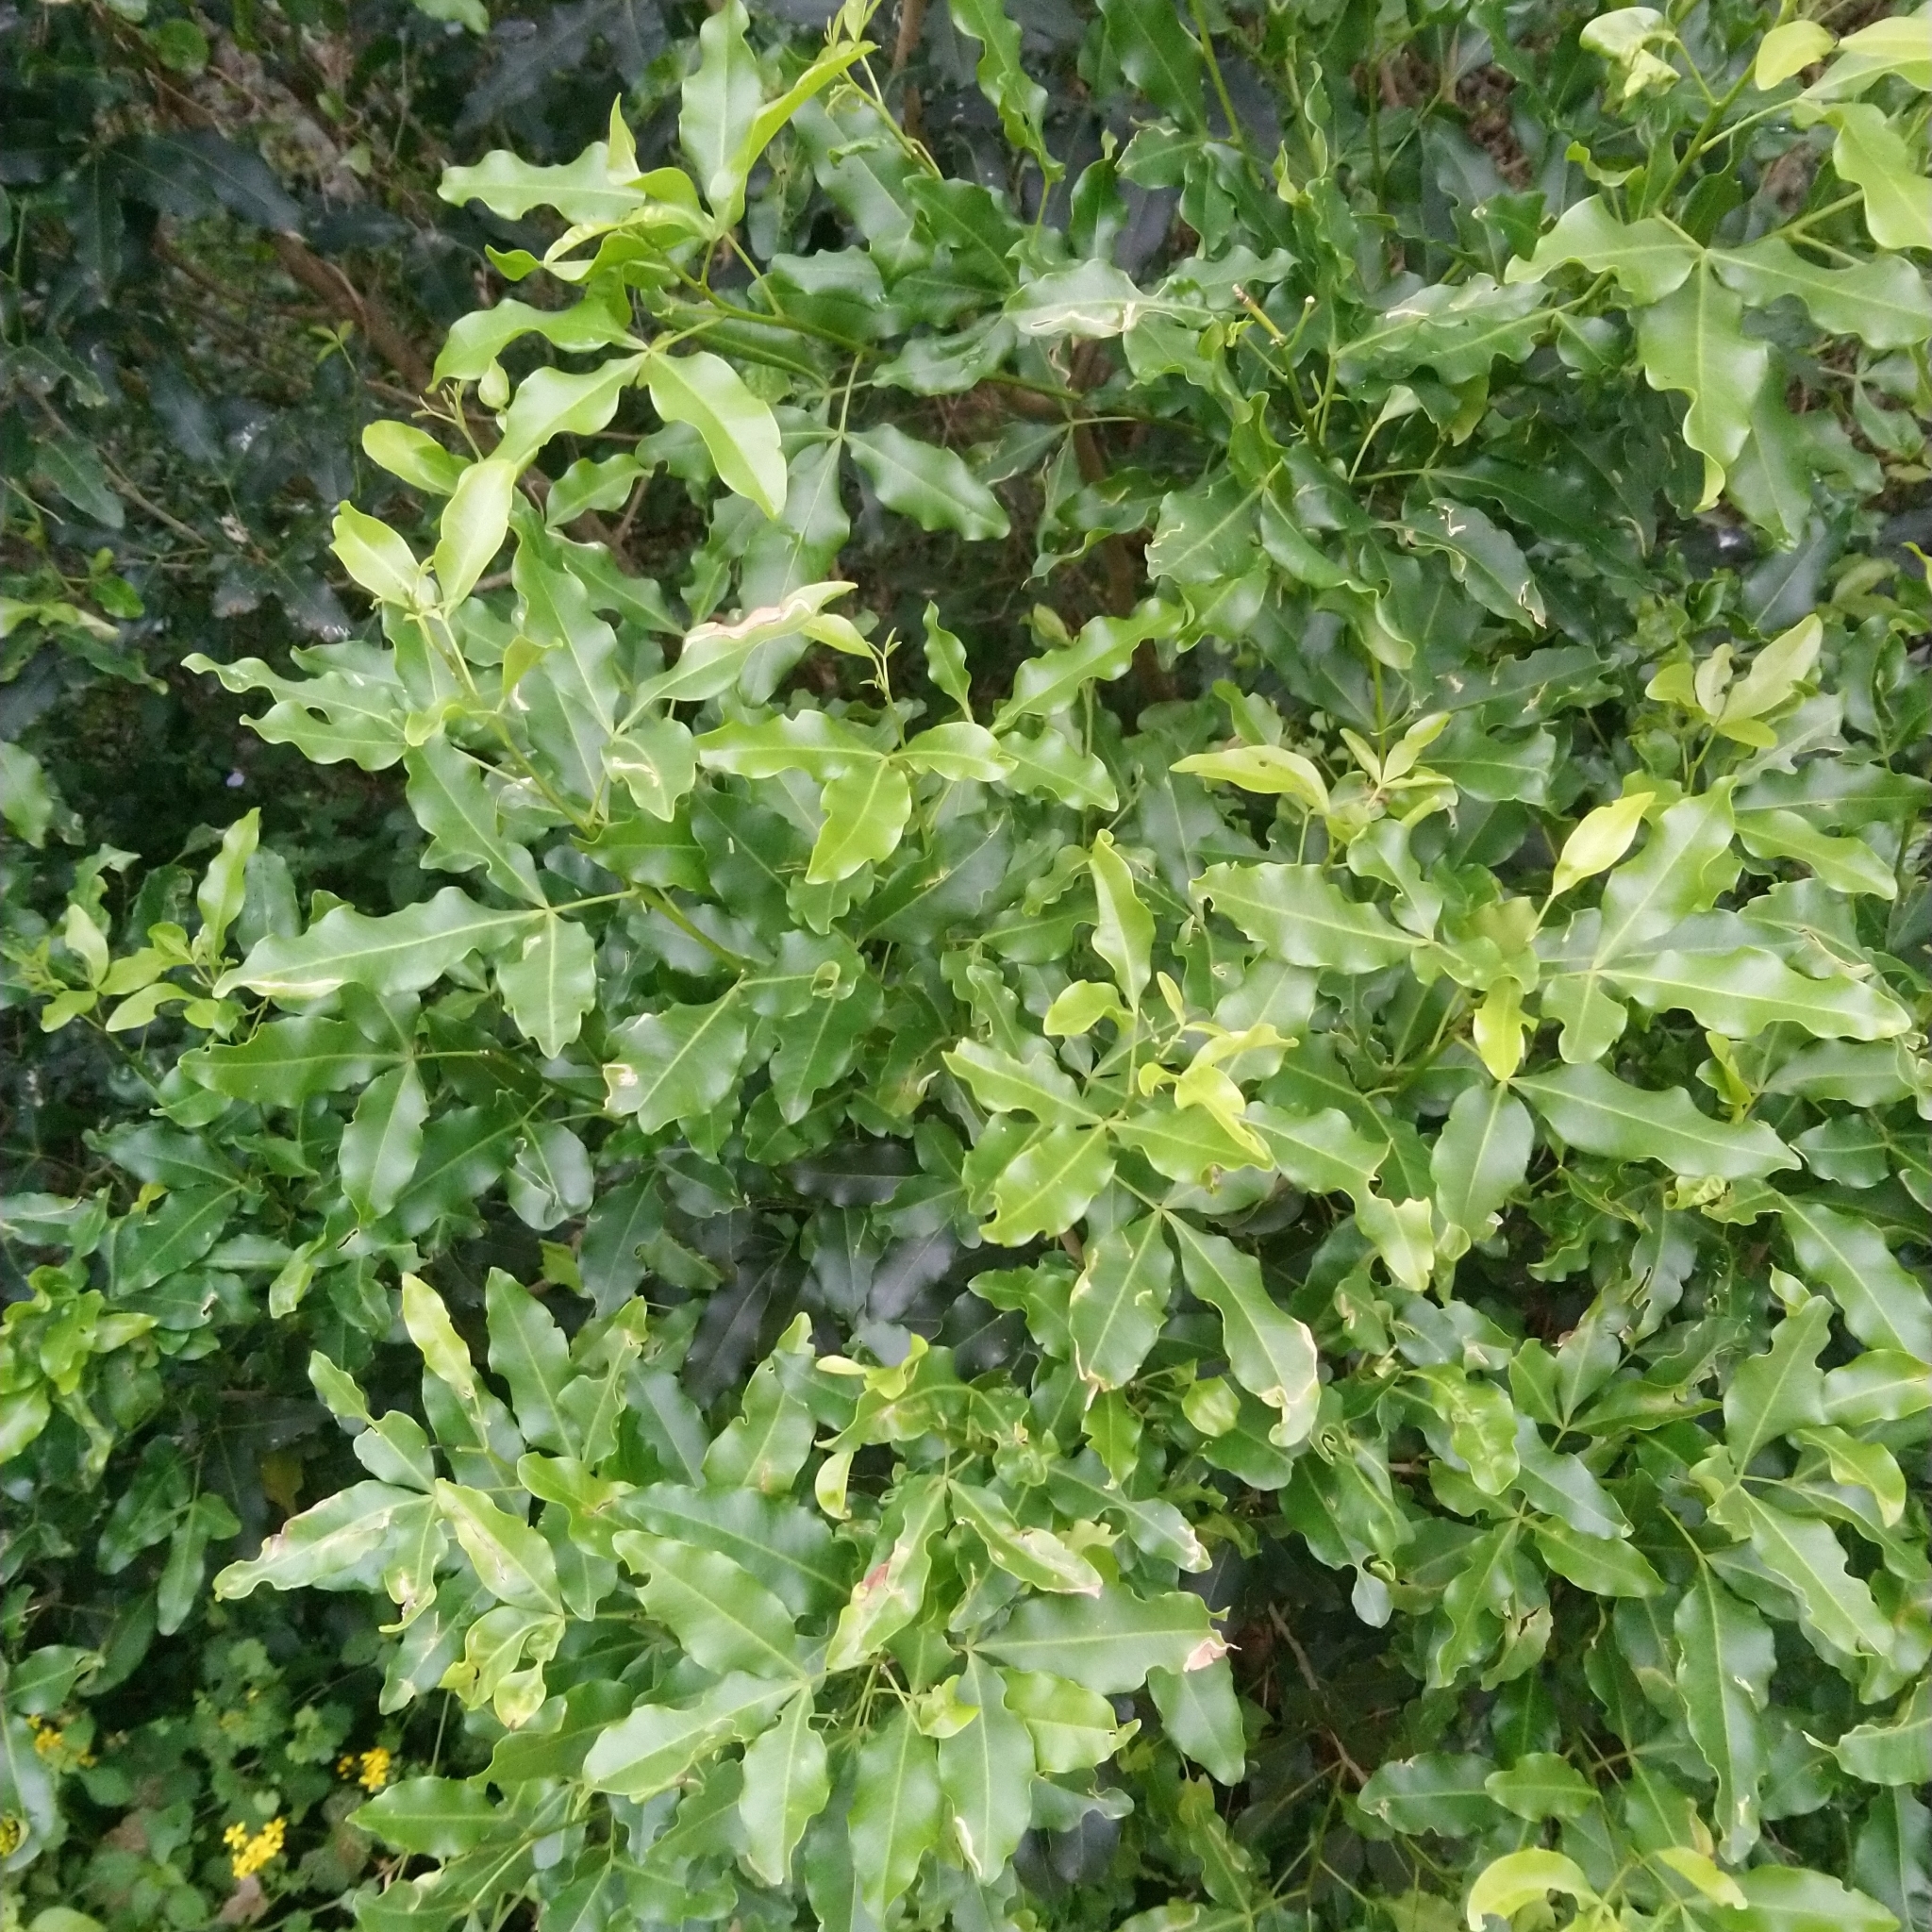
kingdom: Plantae
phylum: Tracheophyta
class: Magnoliopsida
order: Sapindales
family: Rutaceae
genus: Vepris
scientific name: Vepris lanceolata
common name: White ironwood
